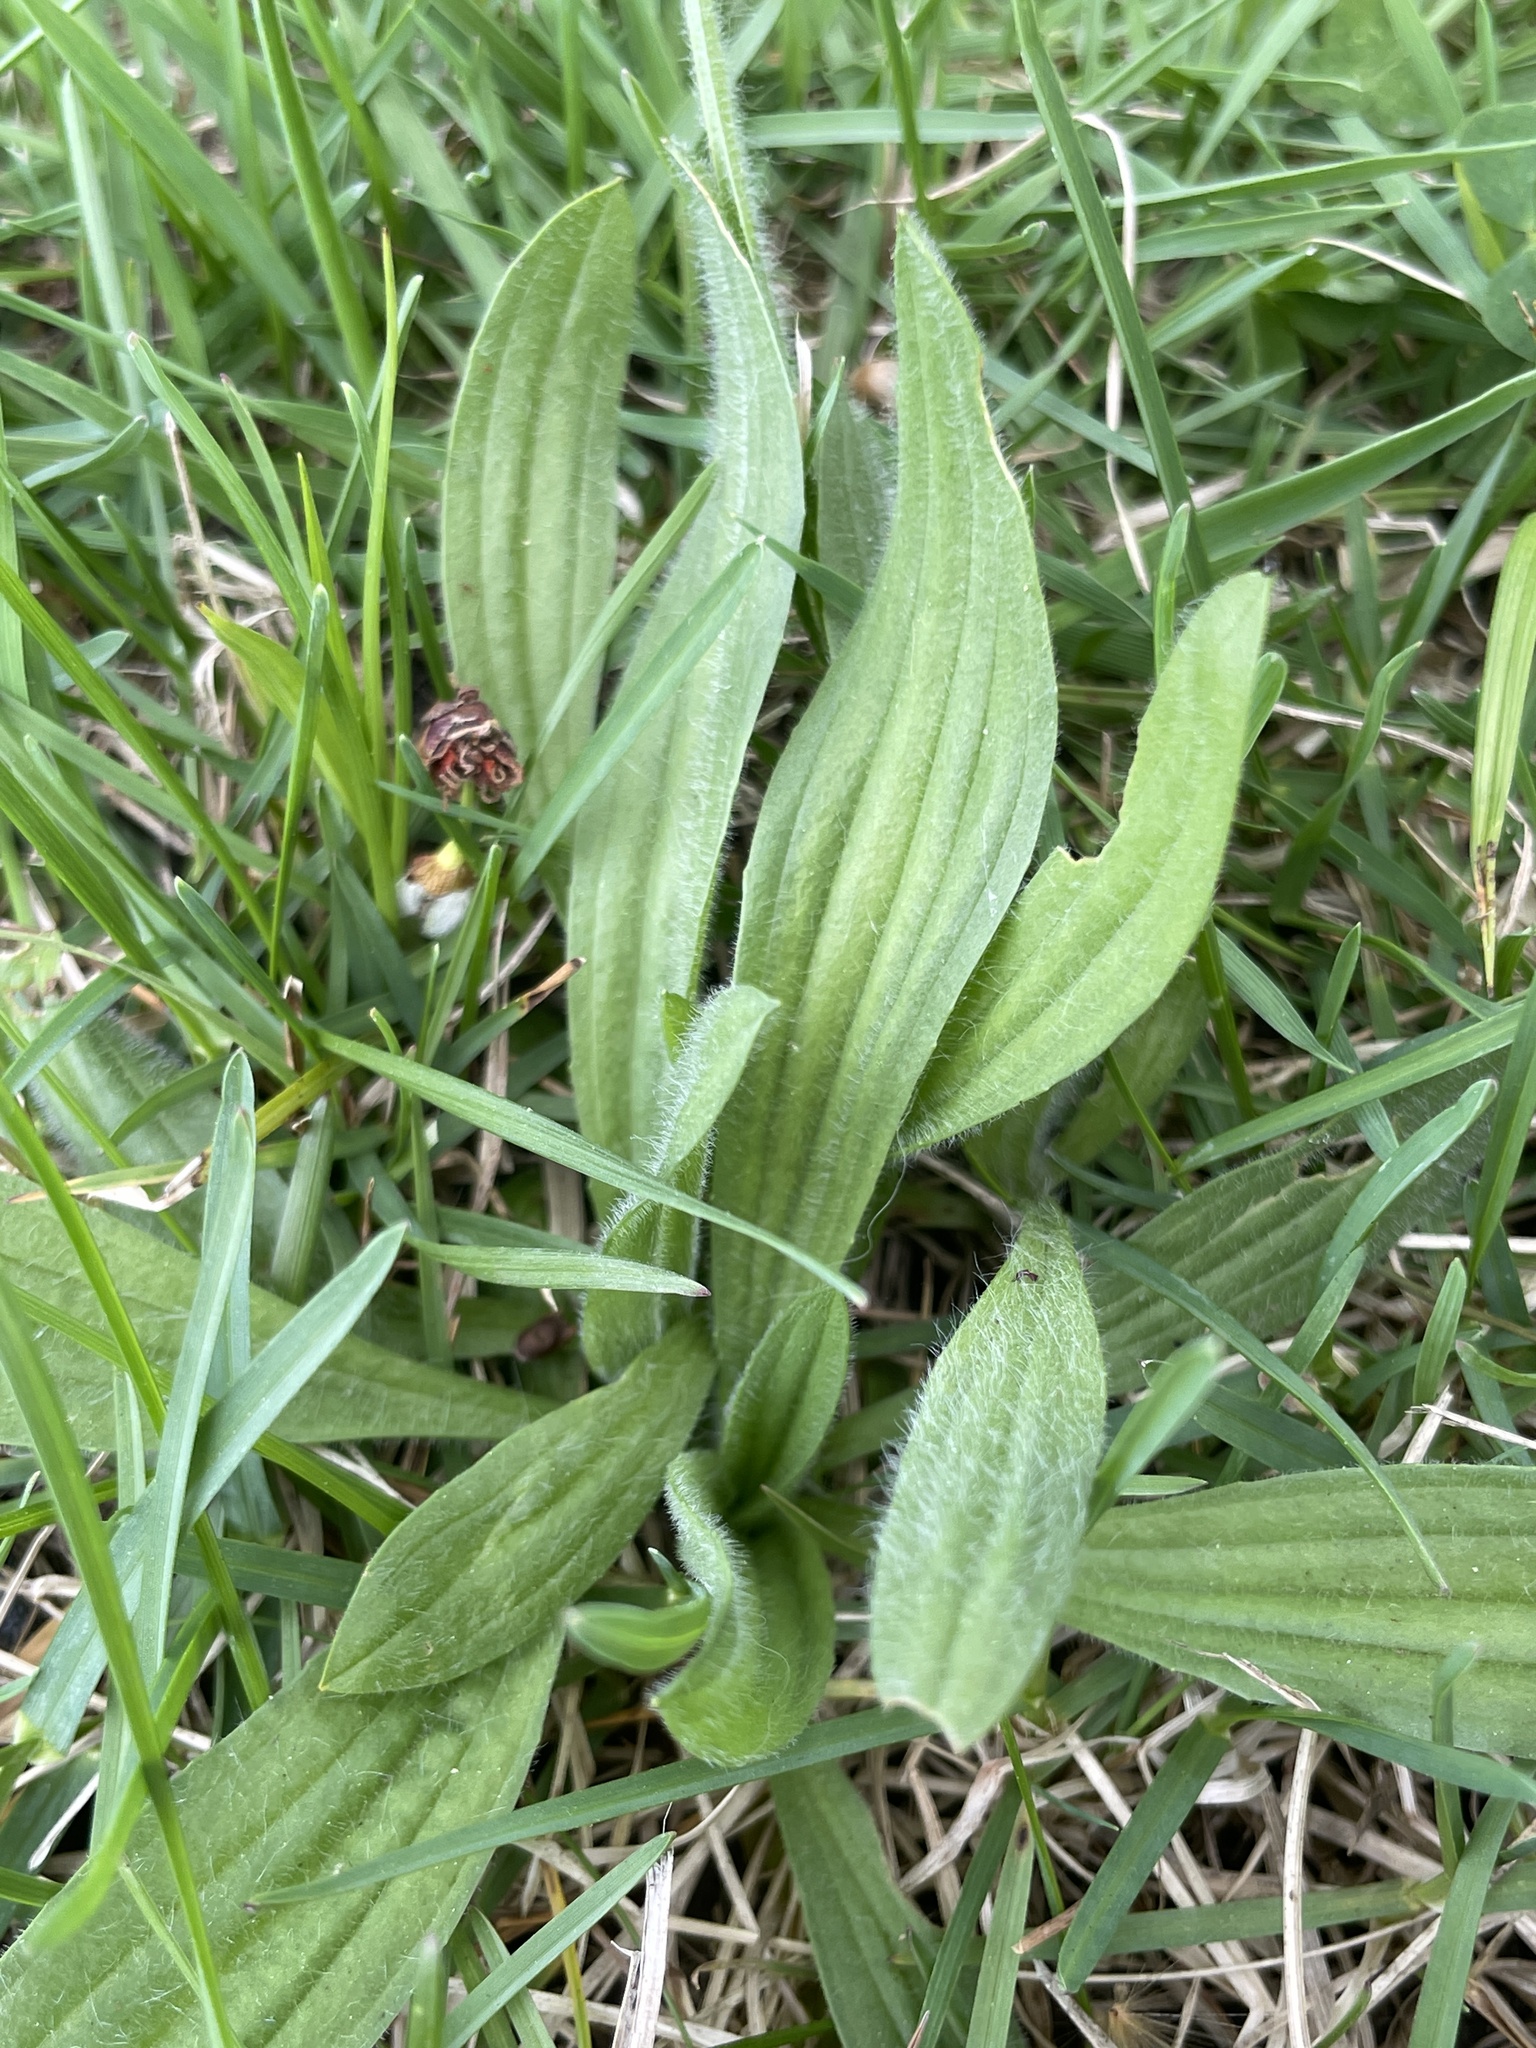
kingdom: Plantae
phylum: Tracheophyta
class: Magnoliopsida
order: Lamiales
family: Plantaginaceae
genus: Plantago
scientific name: Plantago lanceolata
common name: Ribwort plantain
